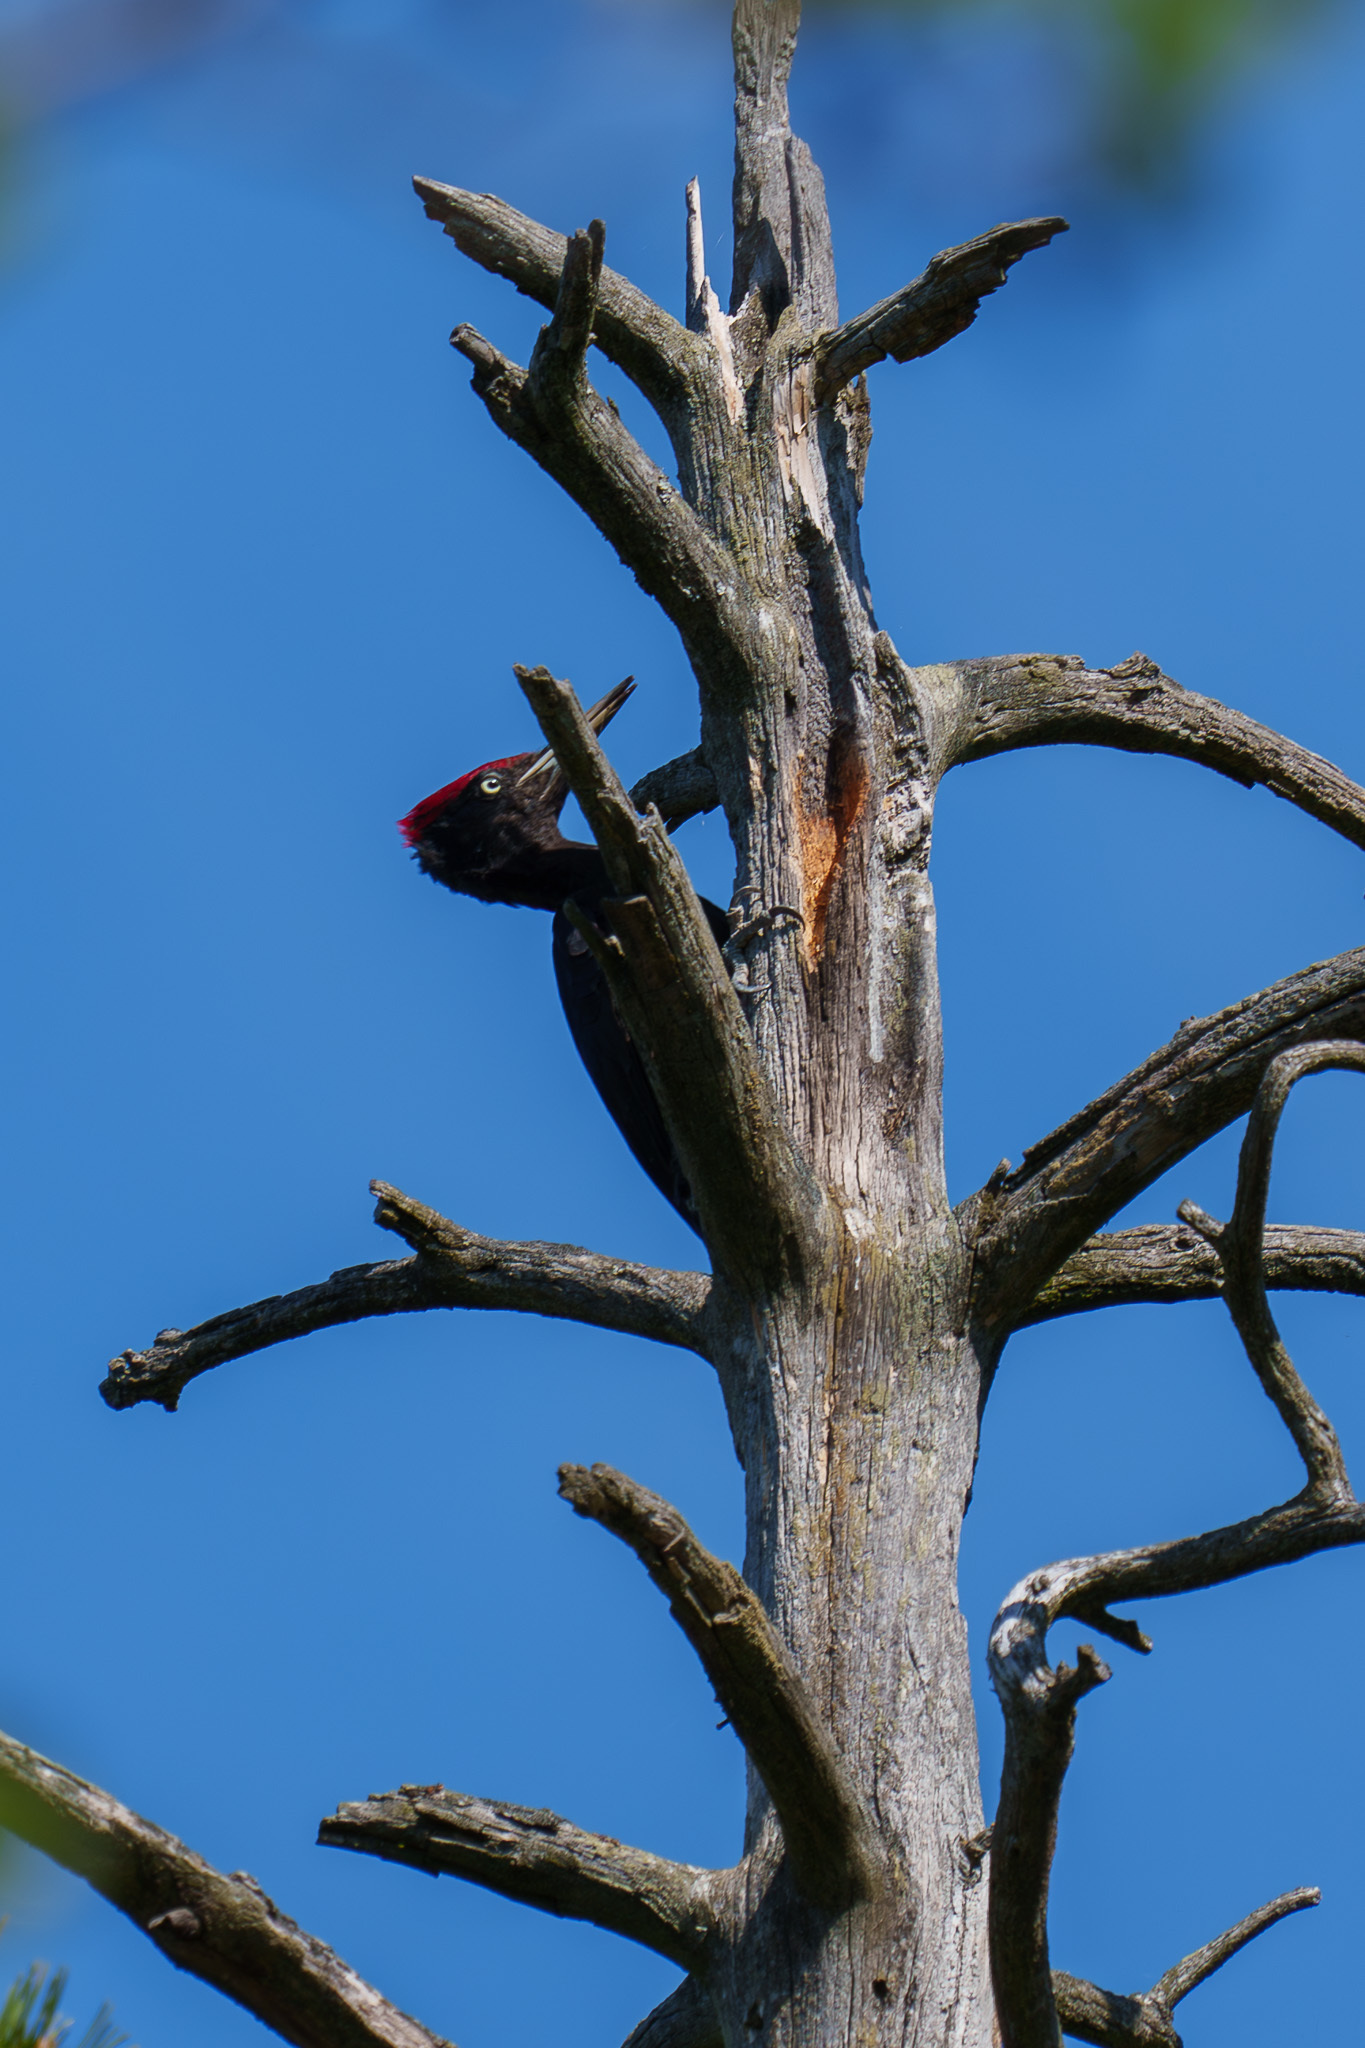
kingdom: Animalia
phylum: Chordata
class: Aves
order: Piciformes
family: Picidae
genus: Dryocopus
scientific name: Dryocopus martius
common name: Black woodpecker
